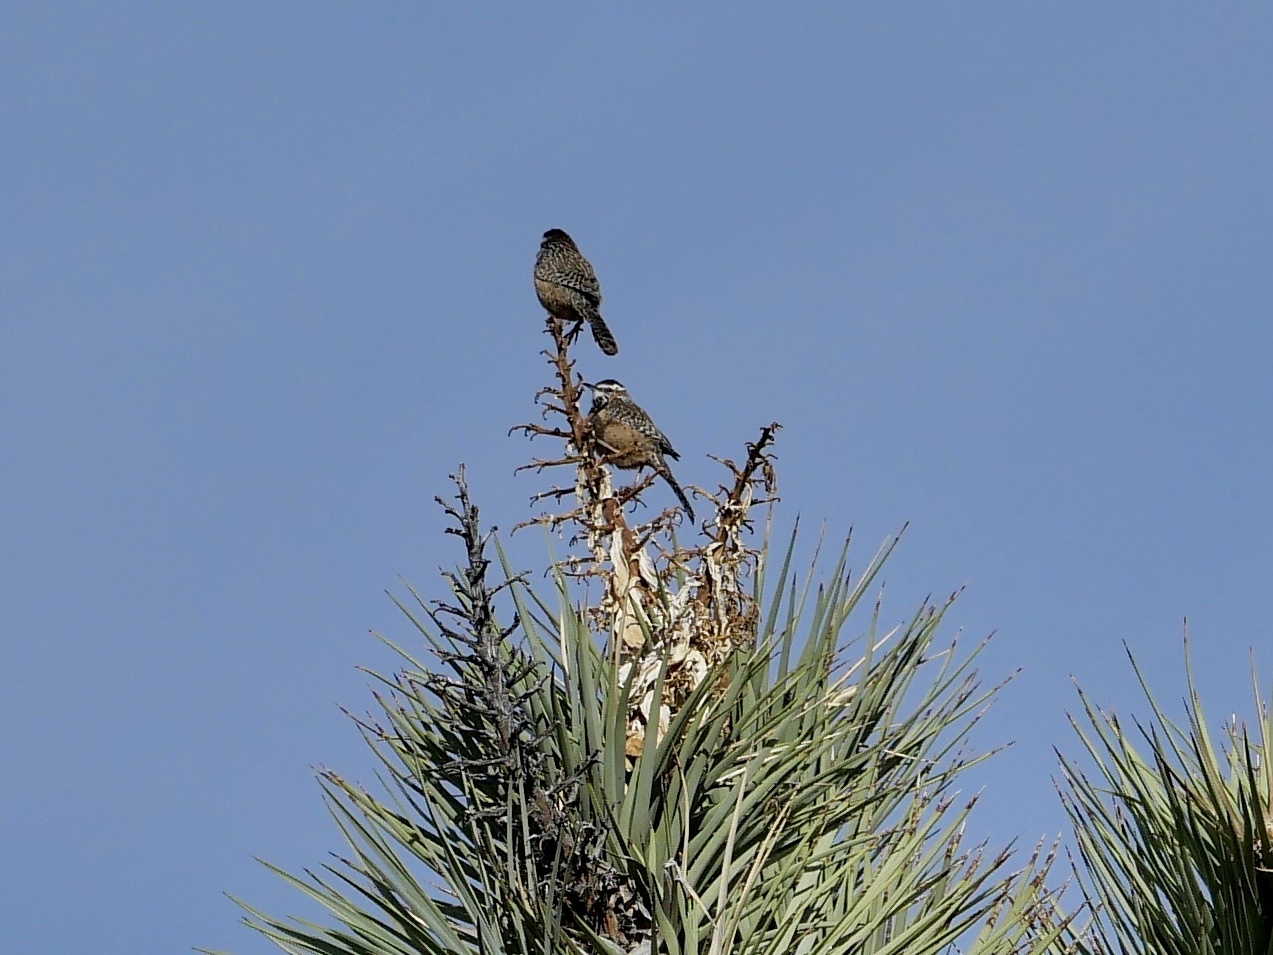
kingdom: Animalia
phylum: Chordata
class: Aves
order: Passeriformes
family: Troglodytidae
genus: Campylorhynchus
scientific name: Campylorhynchus brunneicapillus
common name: Cactus wren
